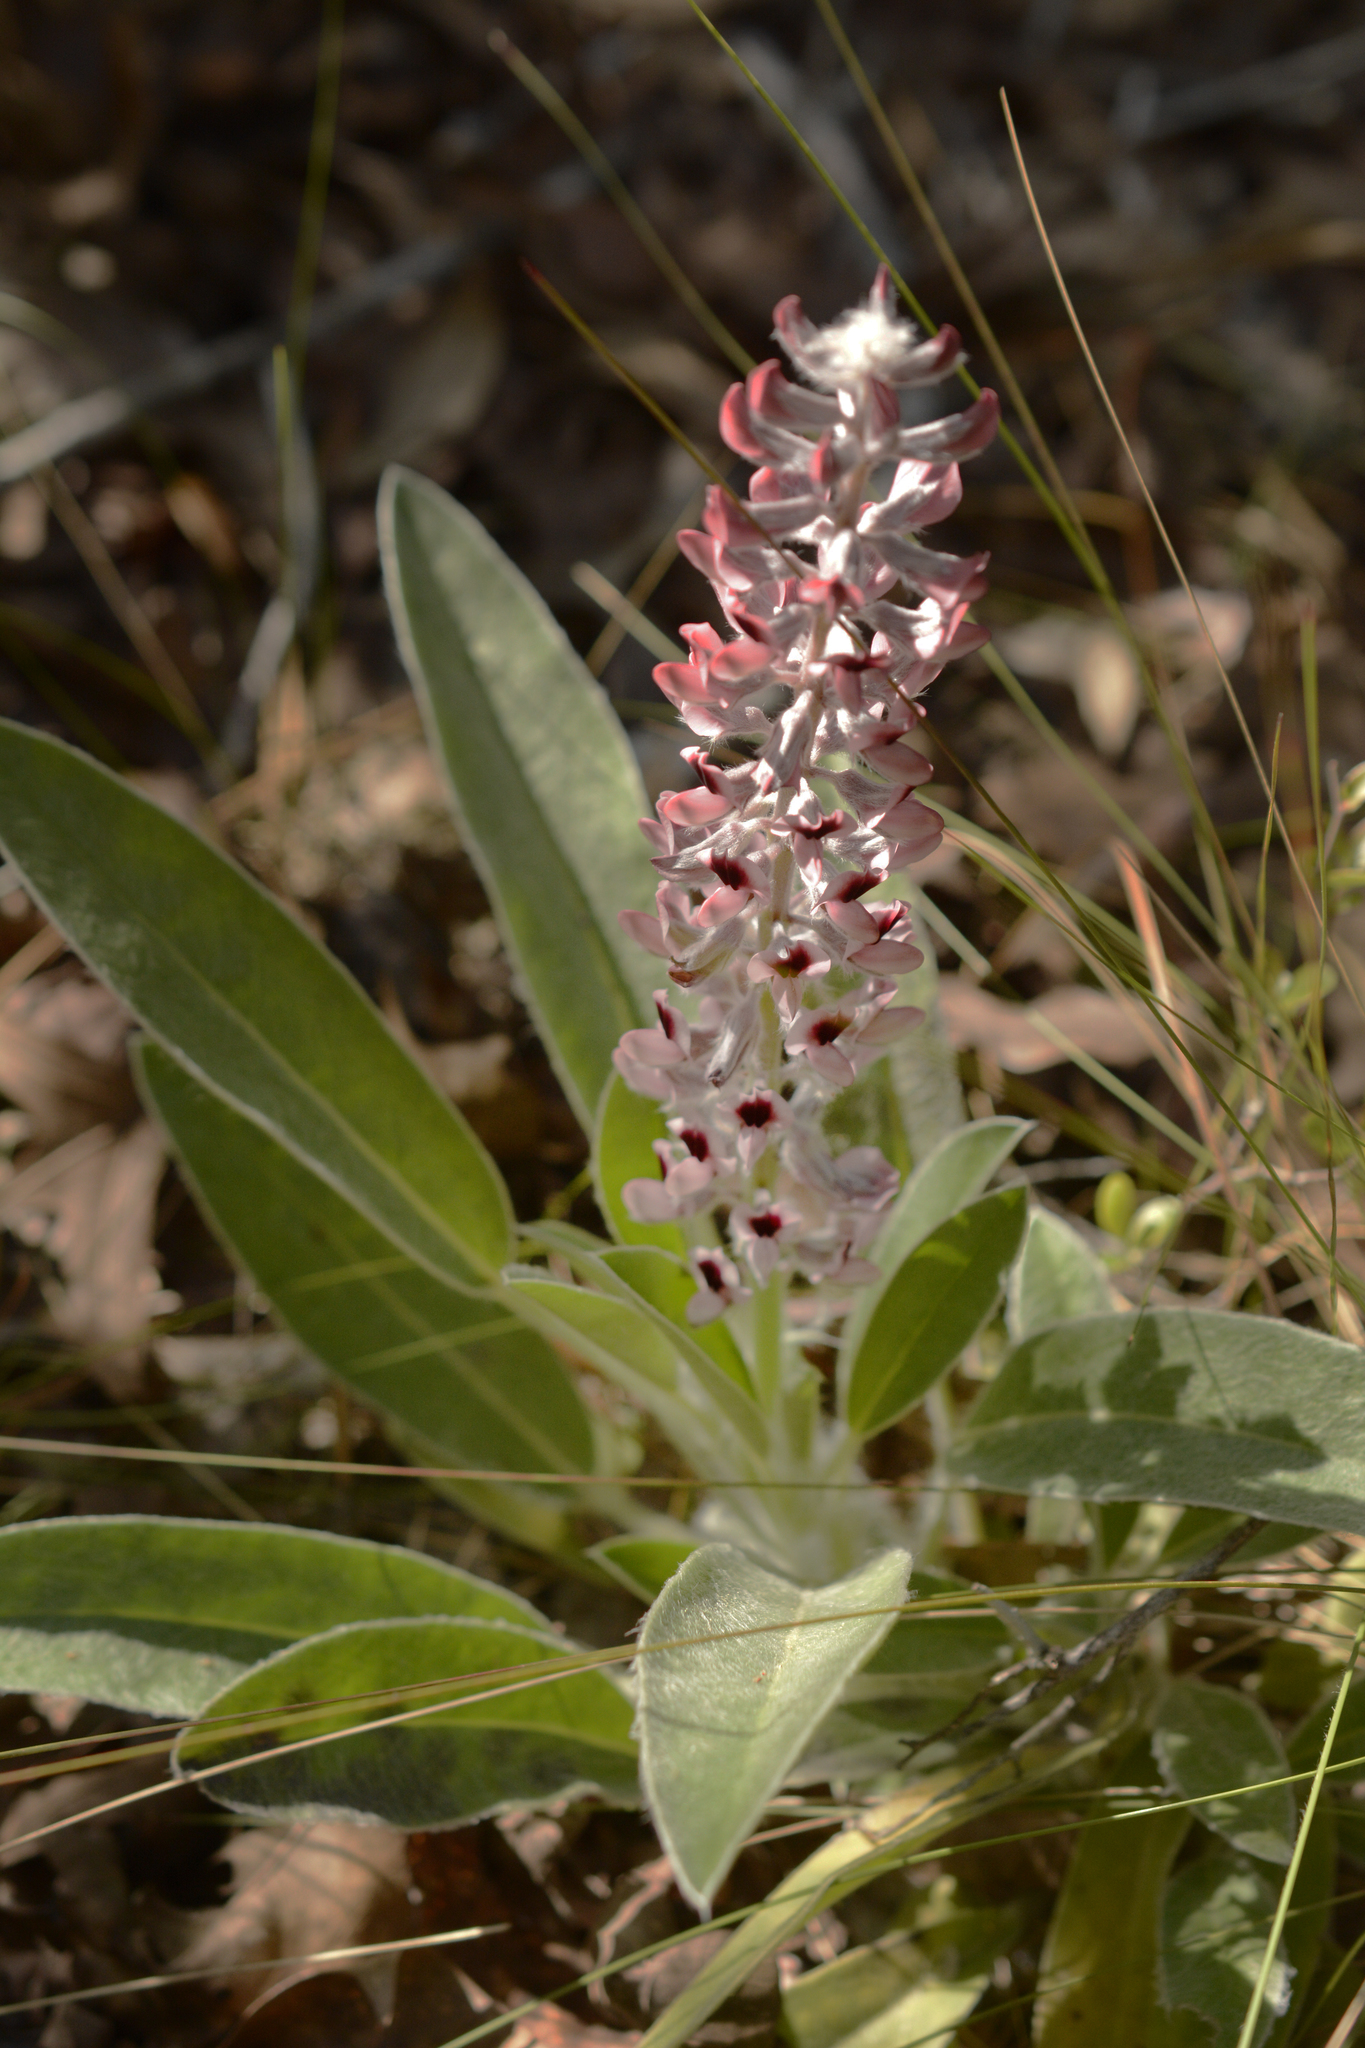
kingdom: Plantae
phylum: Tracheophyta
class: Magnoliopsida
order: Fabales
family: Fabaceae
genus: Lupinus
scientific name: Lupinus villosus
